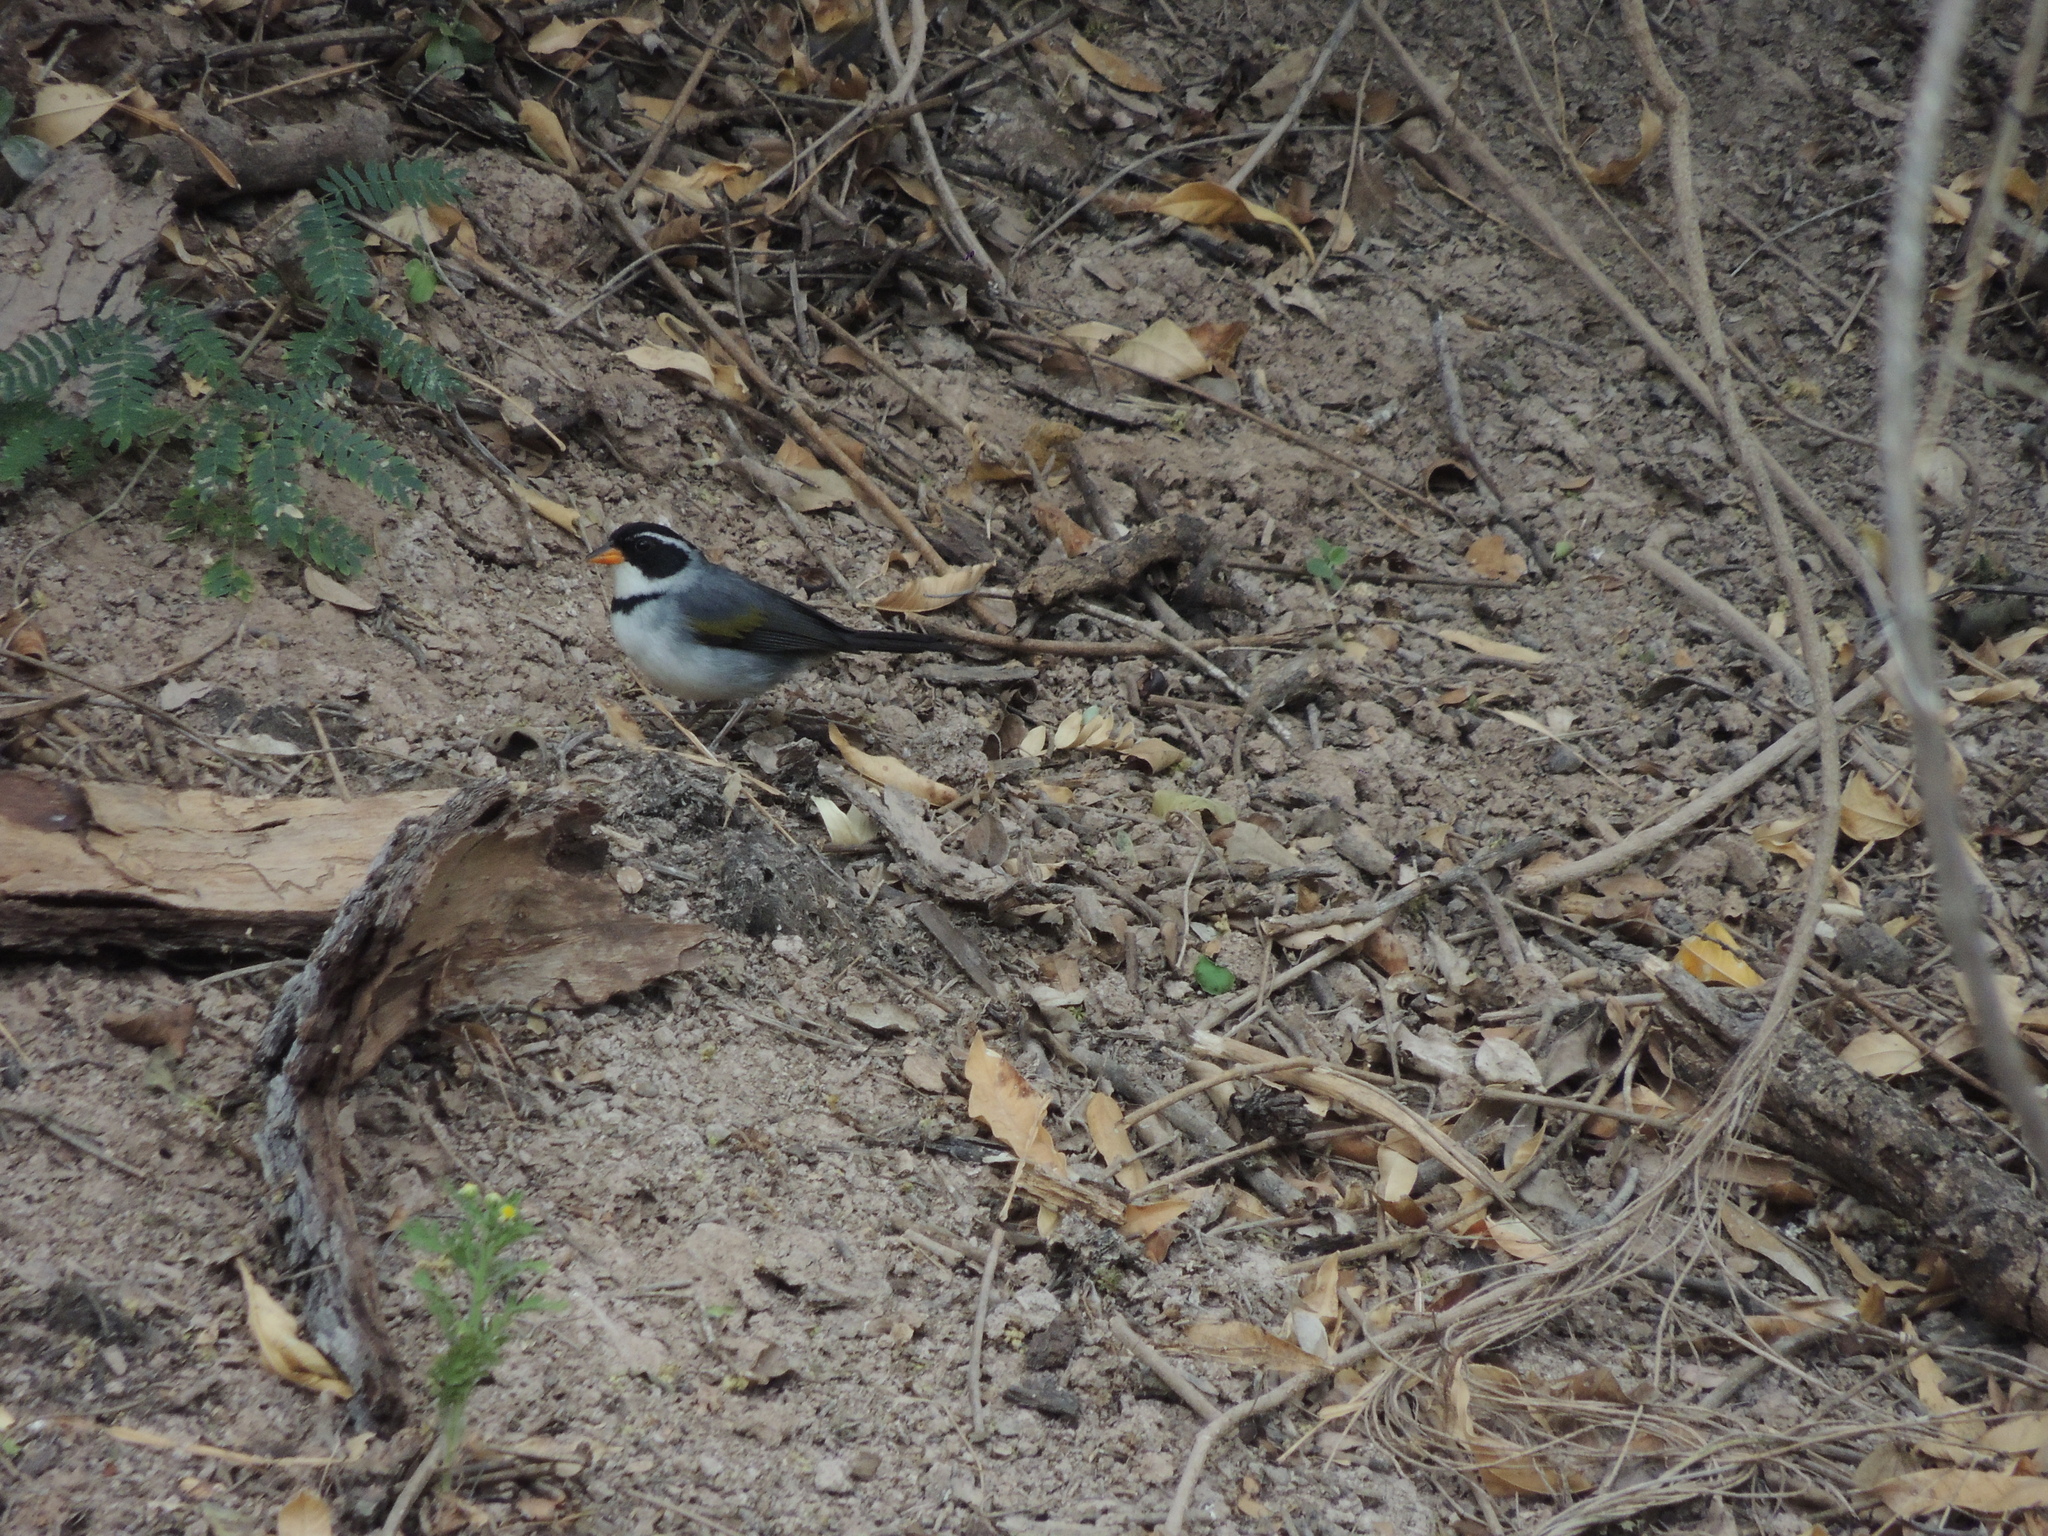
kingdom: Animalia
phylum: Chordata
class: Aves
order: Passeriformes
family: Passerellidae
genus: Arremon
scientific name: Arremon flavirostris
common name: Saffron-billed sparrow
